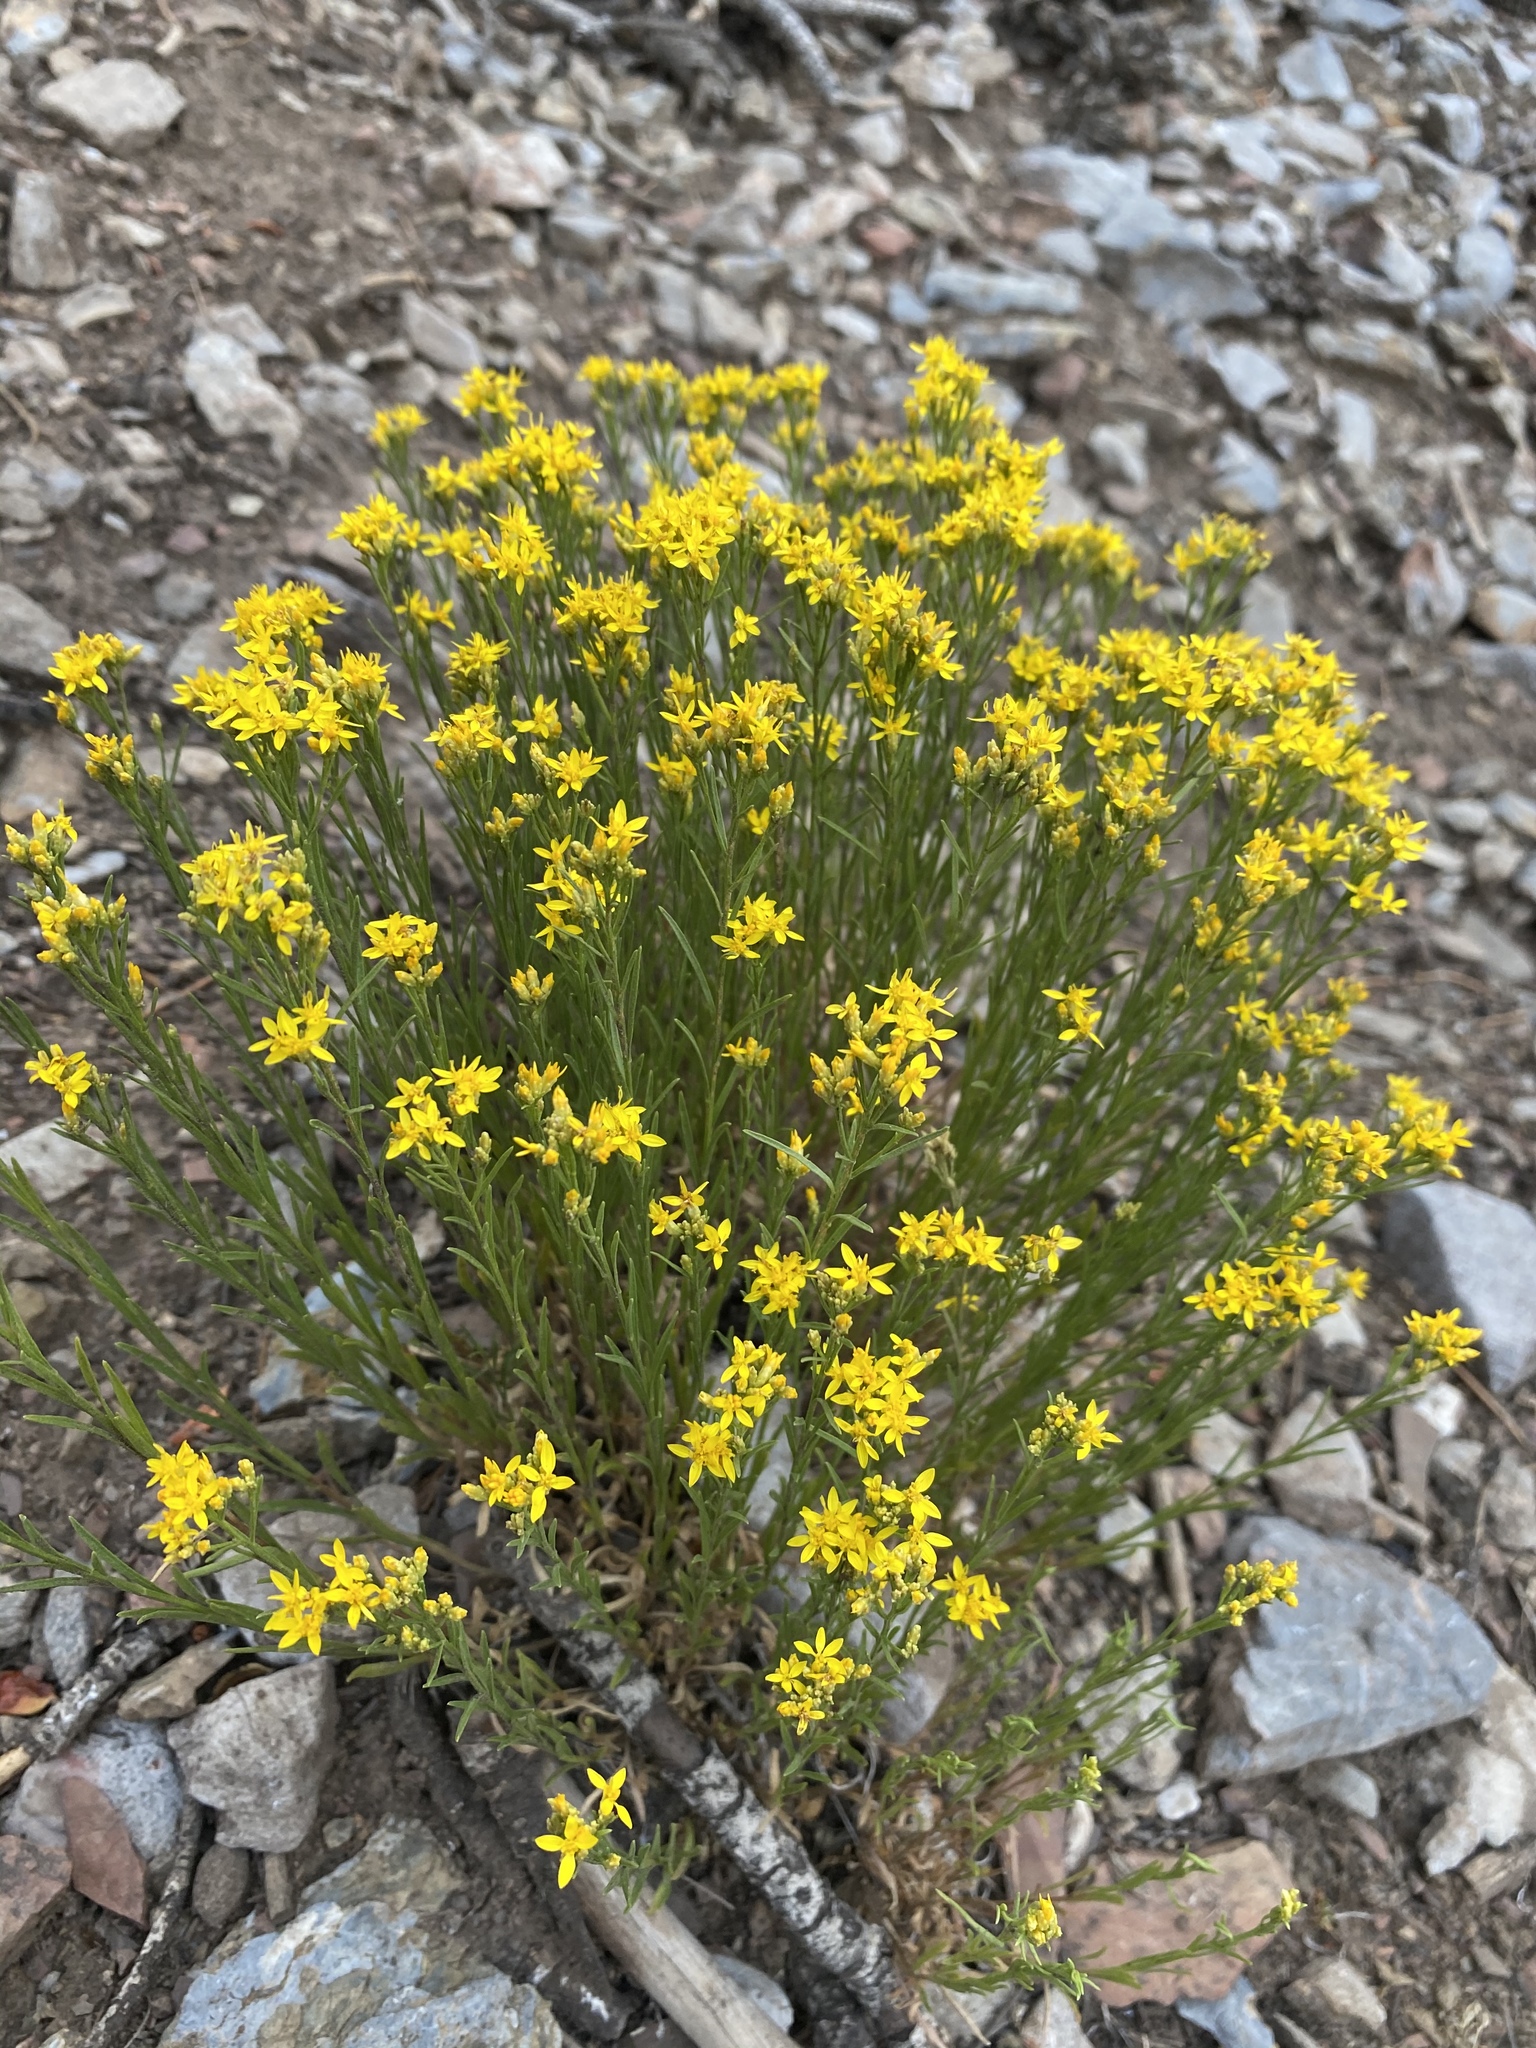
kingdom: Plantae
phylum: Tracheophyta
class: Magnoliopsida
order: Asterales
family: Asteraceae
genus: Gutierrezia
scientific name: Gutierrezia sarothrae
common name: Broom snakeweed
